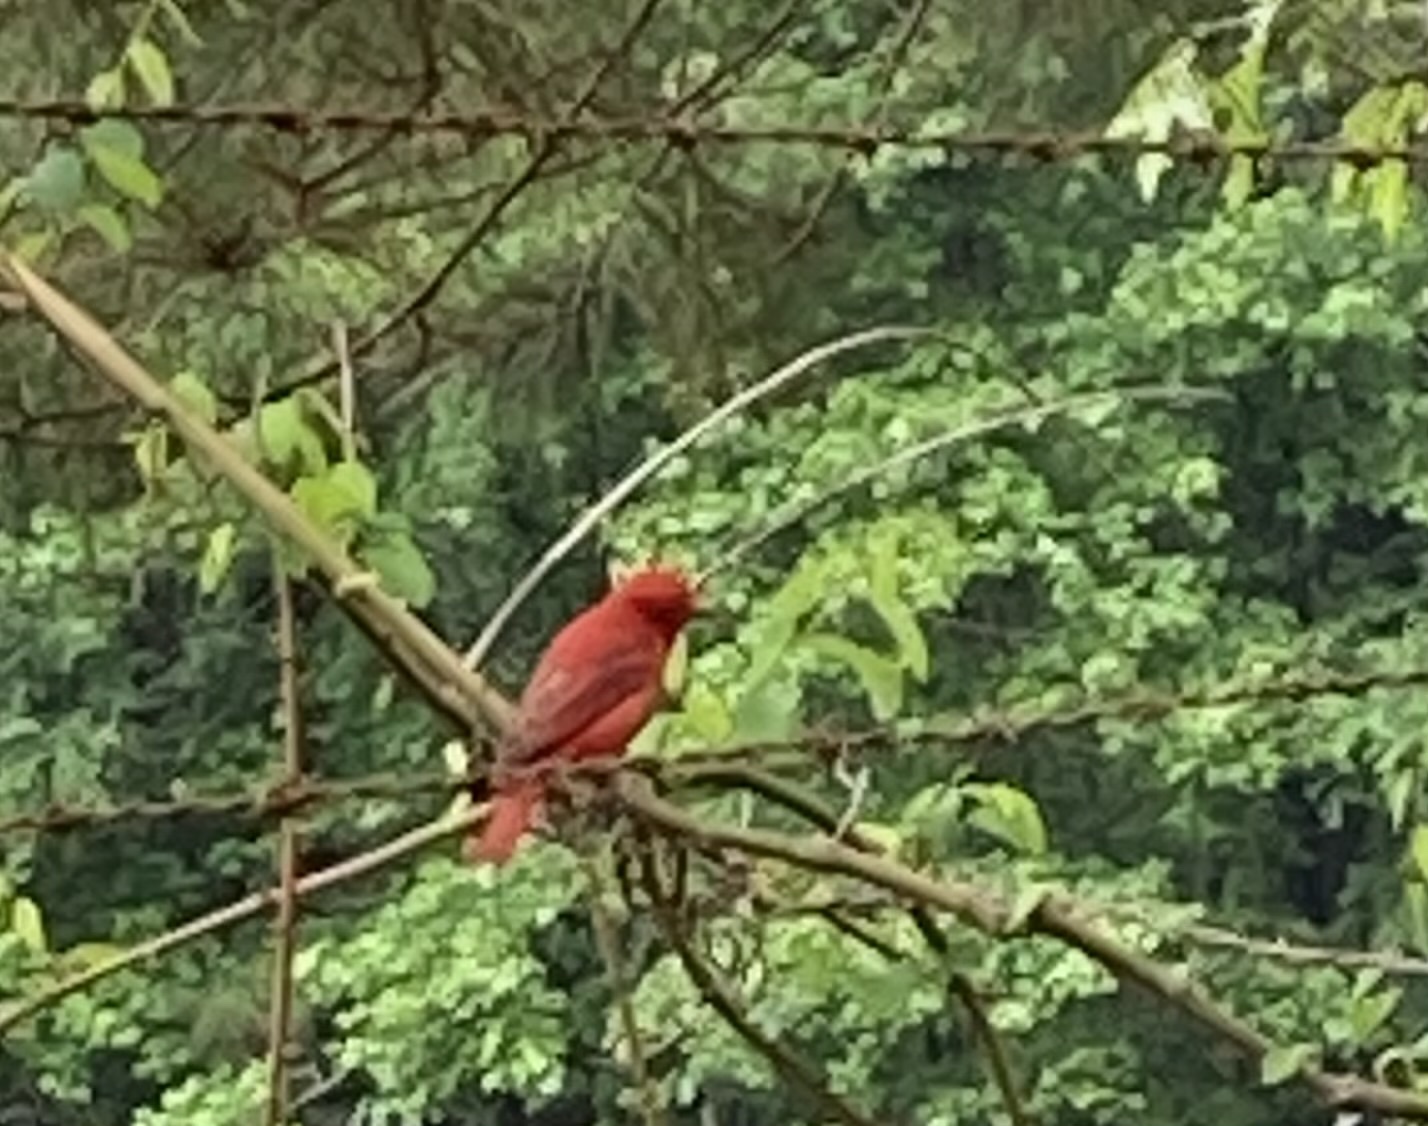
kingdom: Animalia
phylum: Chordata
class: Aves
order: Passeriformes
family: Cardinalidae
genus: Piranga
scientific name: Piranga rubra
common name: Summer tanager
